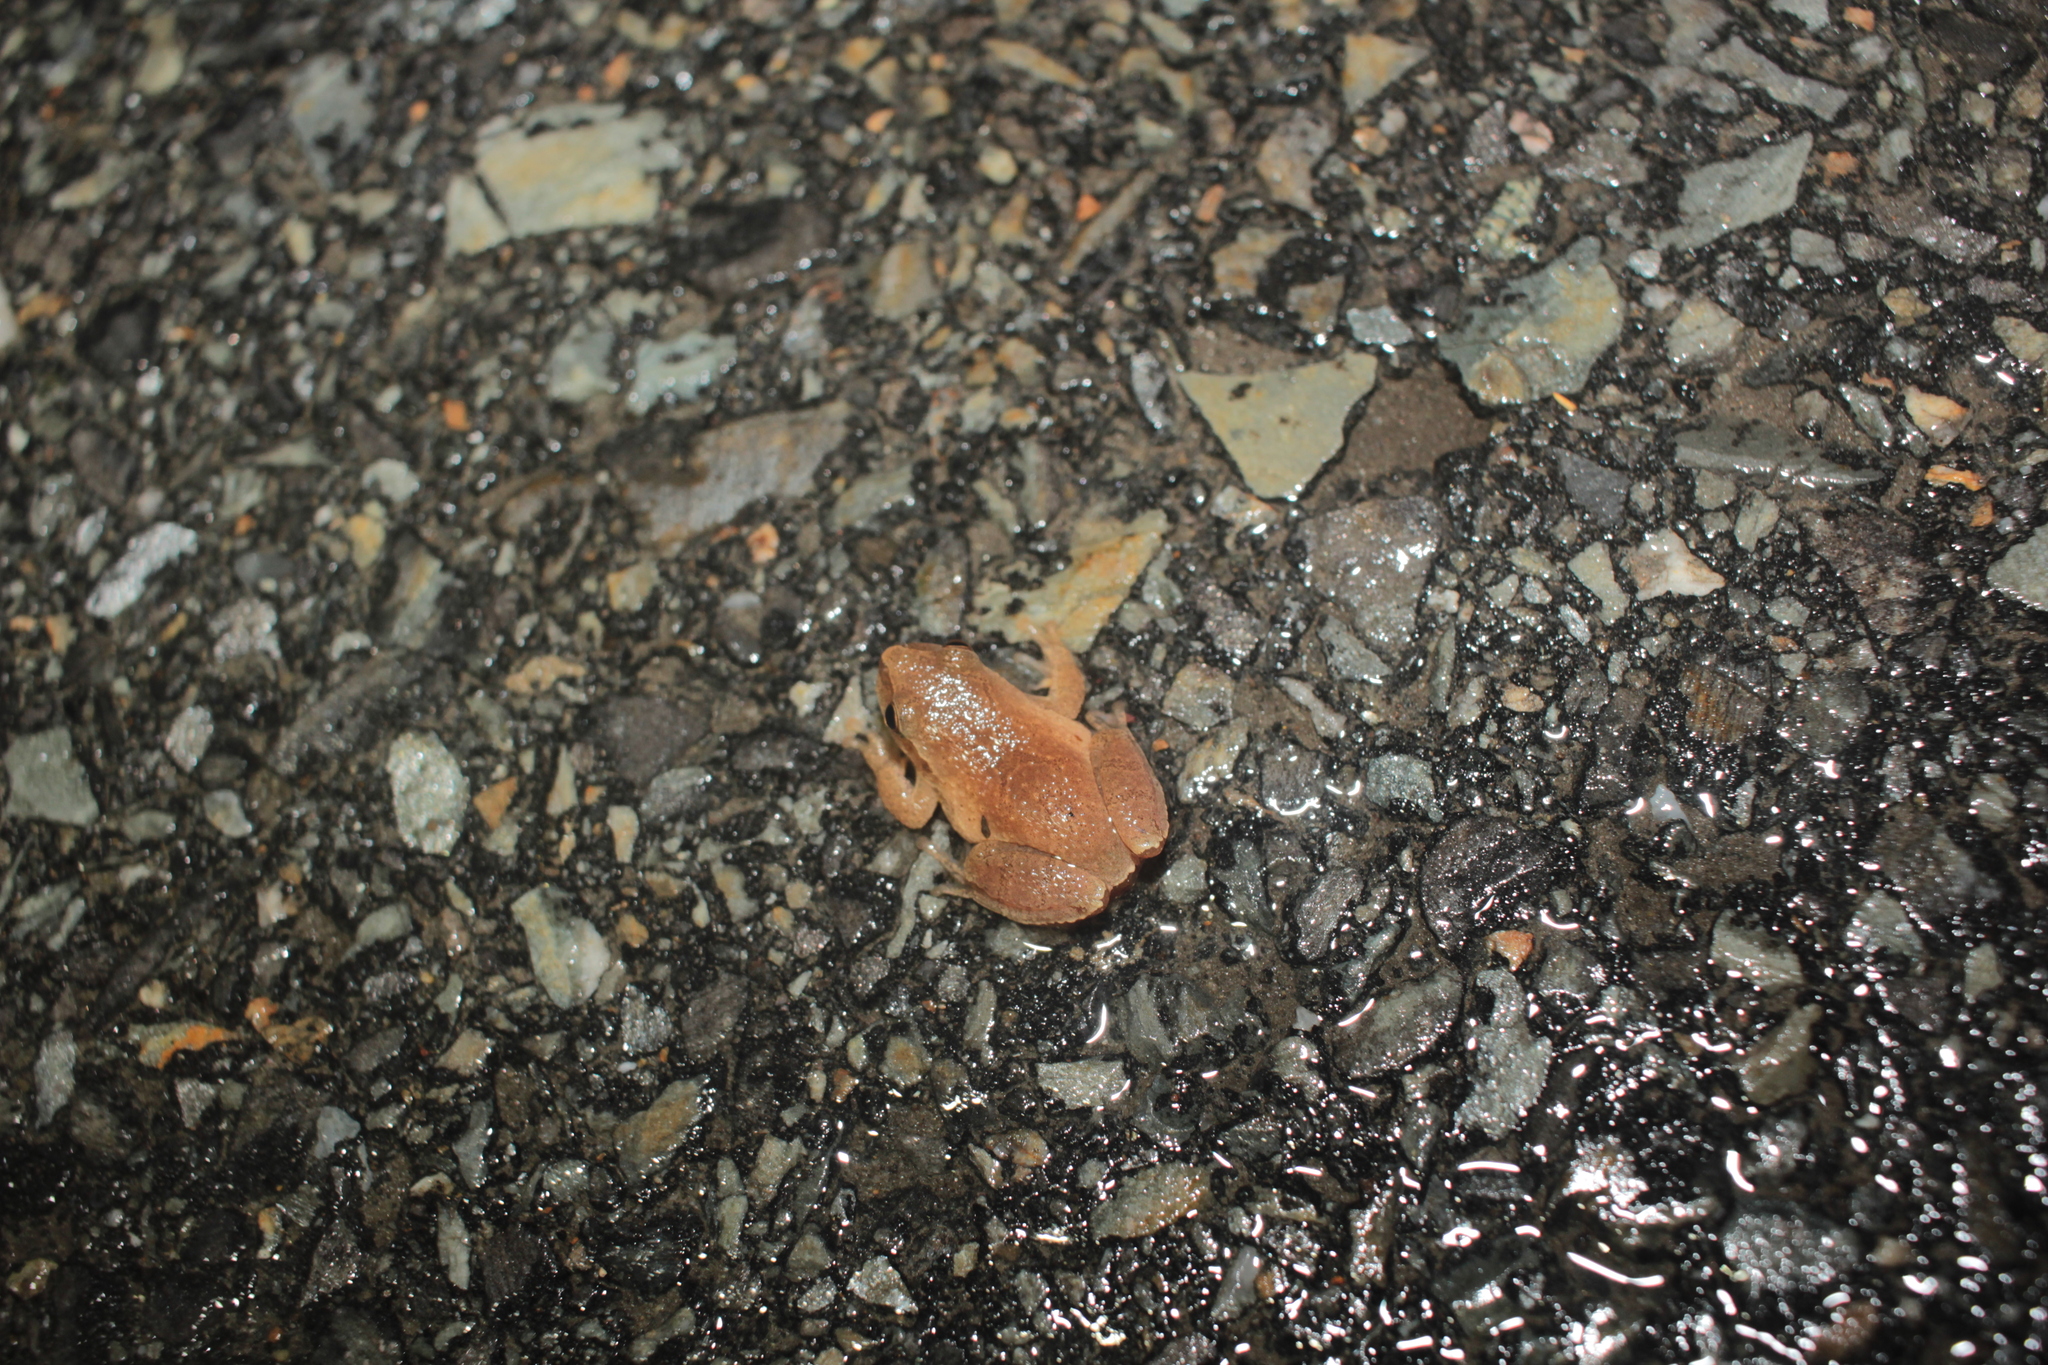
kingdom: Animalia
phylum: Chordata
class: Amphibia
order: Anura
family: Hylidae
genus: Pseudacris
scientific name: Pseudacris crucifer
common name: Spring peeper
